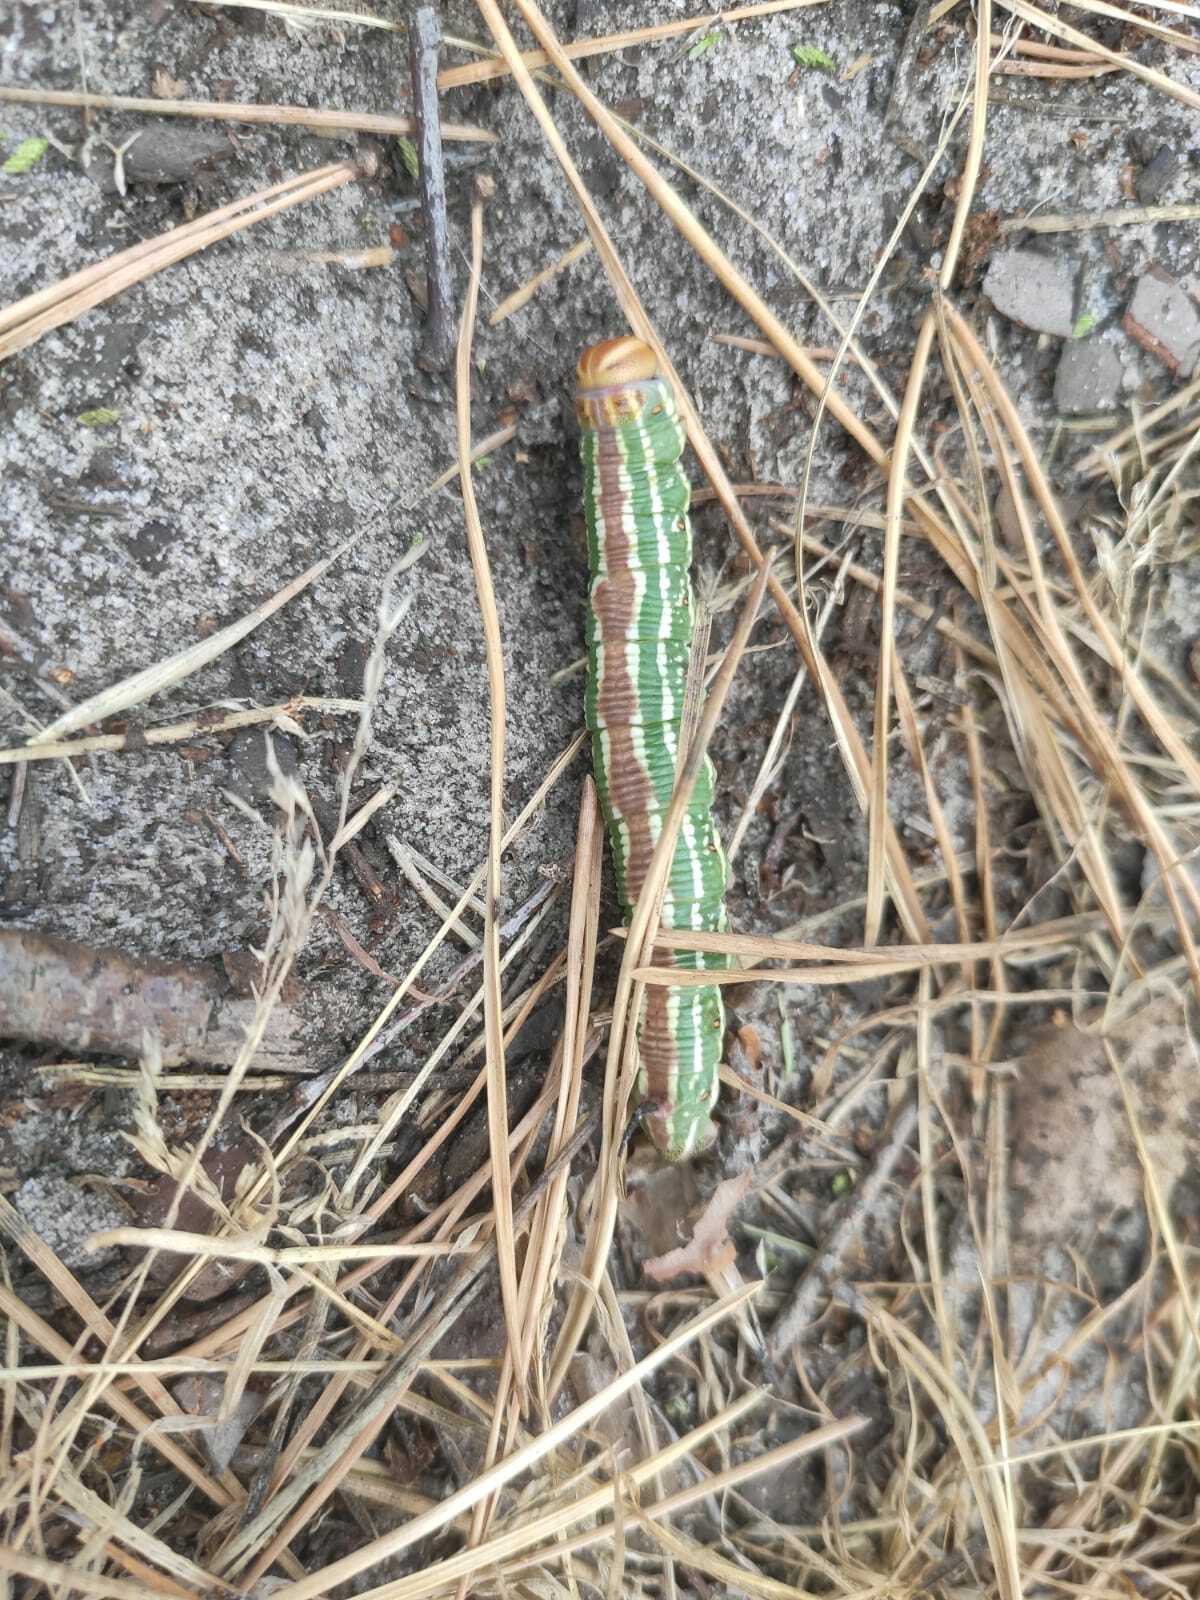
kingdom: Animalia
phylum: Arthropoda
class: Insecta
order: Lepidoptera
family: Sphingidae
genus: Sphinx
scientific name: Sphinx pinastri
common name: Pine hawk-moth
